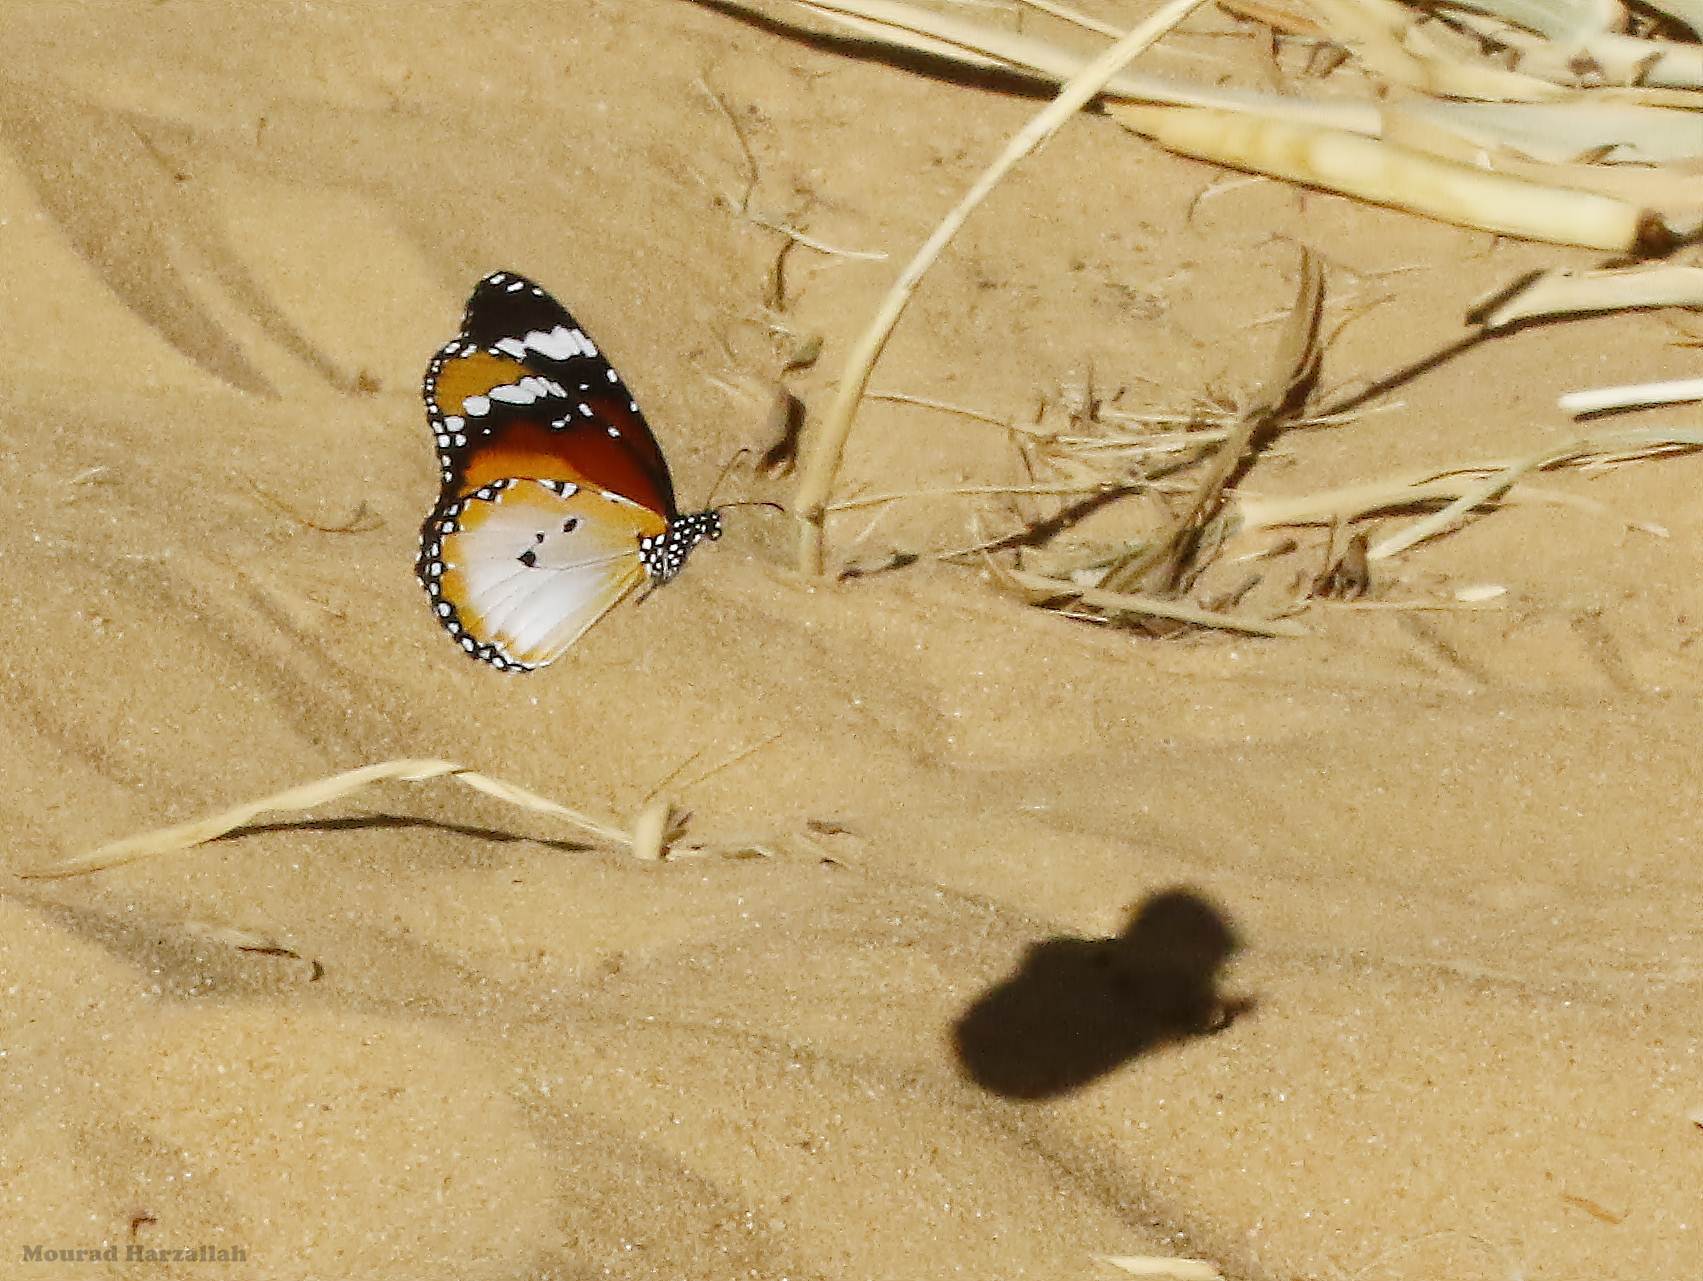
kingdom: Animalia
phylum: Arthropoda
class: Insecta
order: Lepidoptera
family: Nymphalidae
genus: Danaus
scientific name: Danaus chrysippus
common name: Plain tiger
